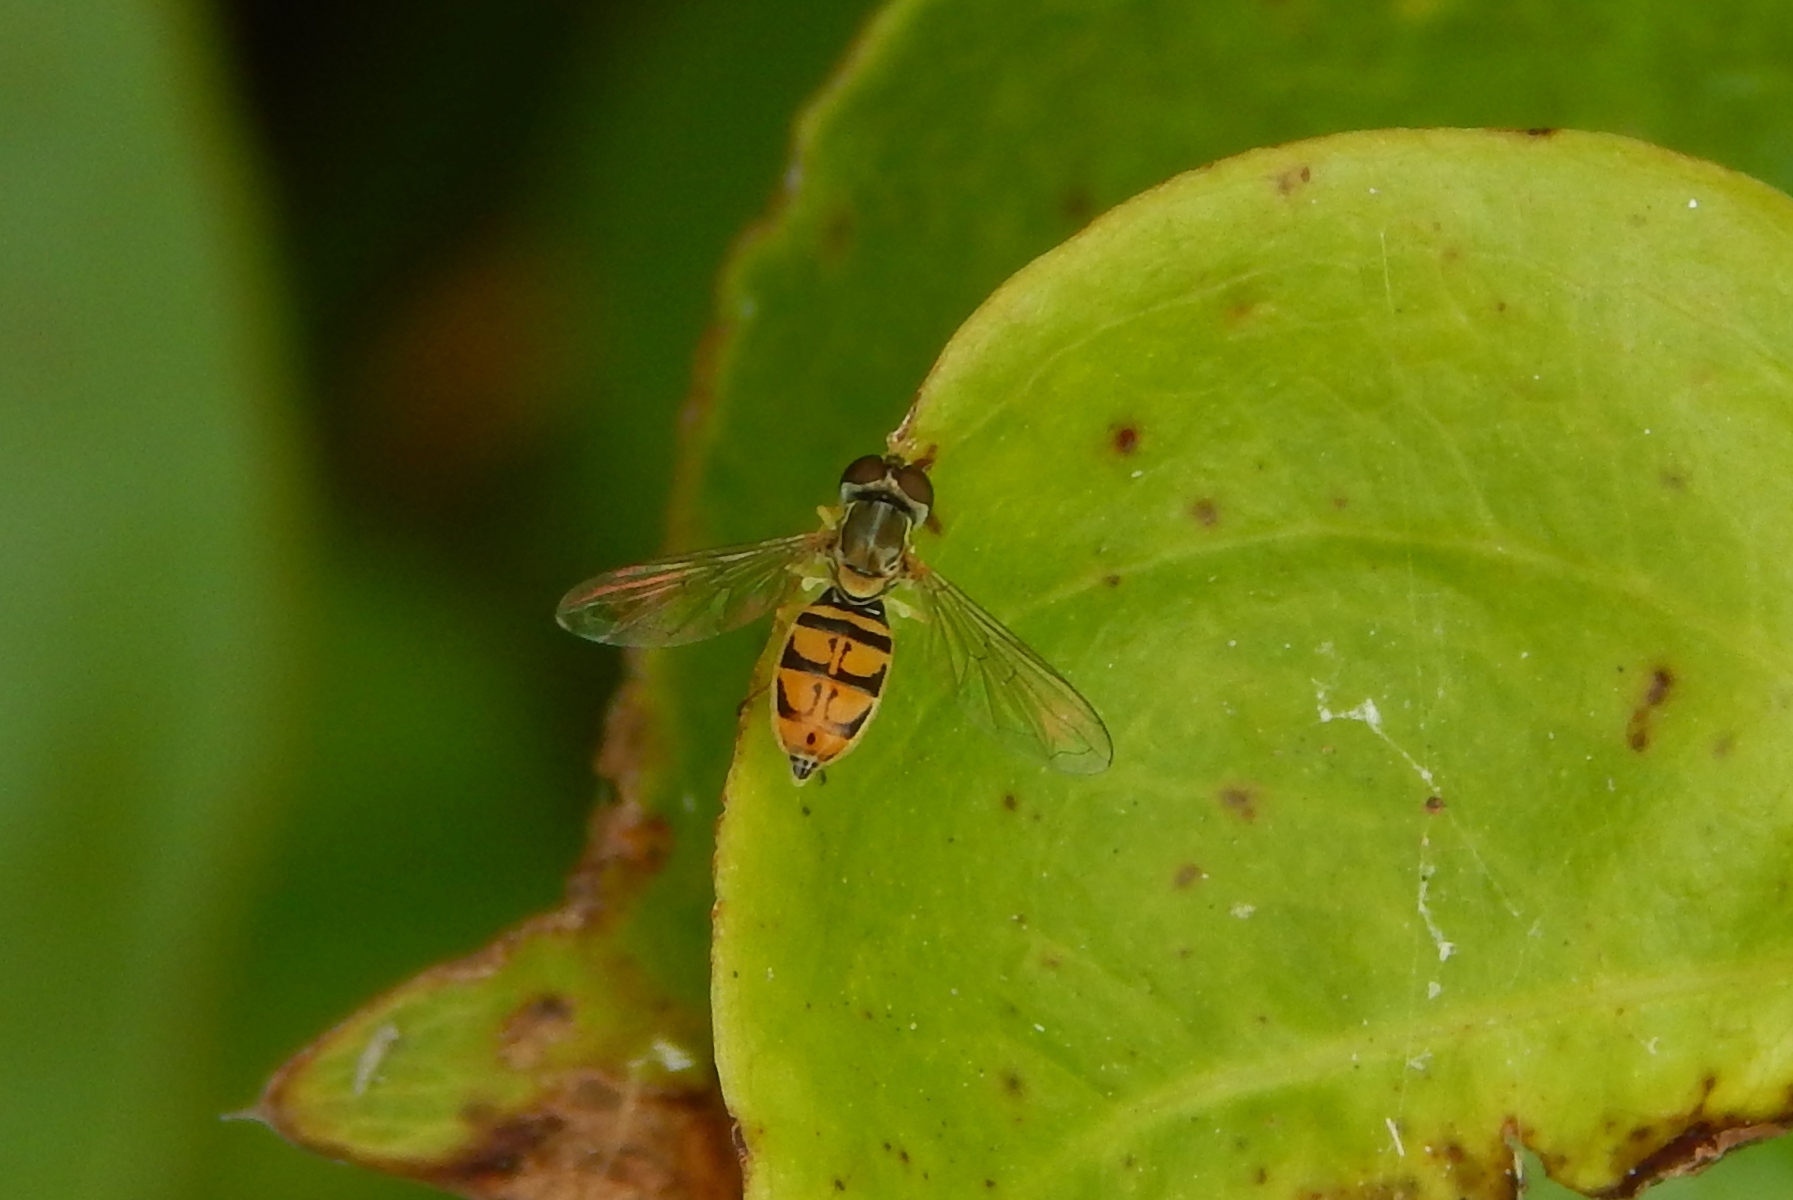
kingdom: Animalia
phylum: Arthropoda
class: Insecta
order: Diptera
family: Syrphidae
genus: Toxomerus
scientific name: Toxomerus marginatus
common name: Syrphid fly
